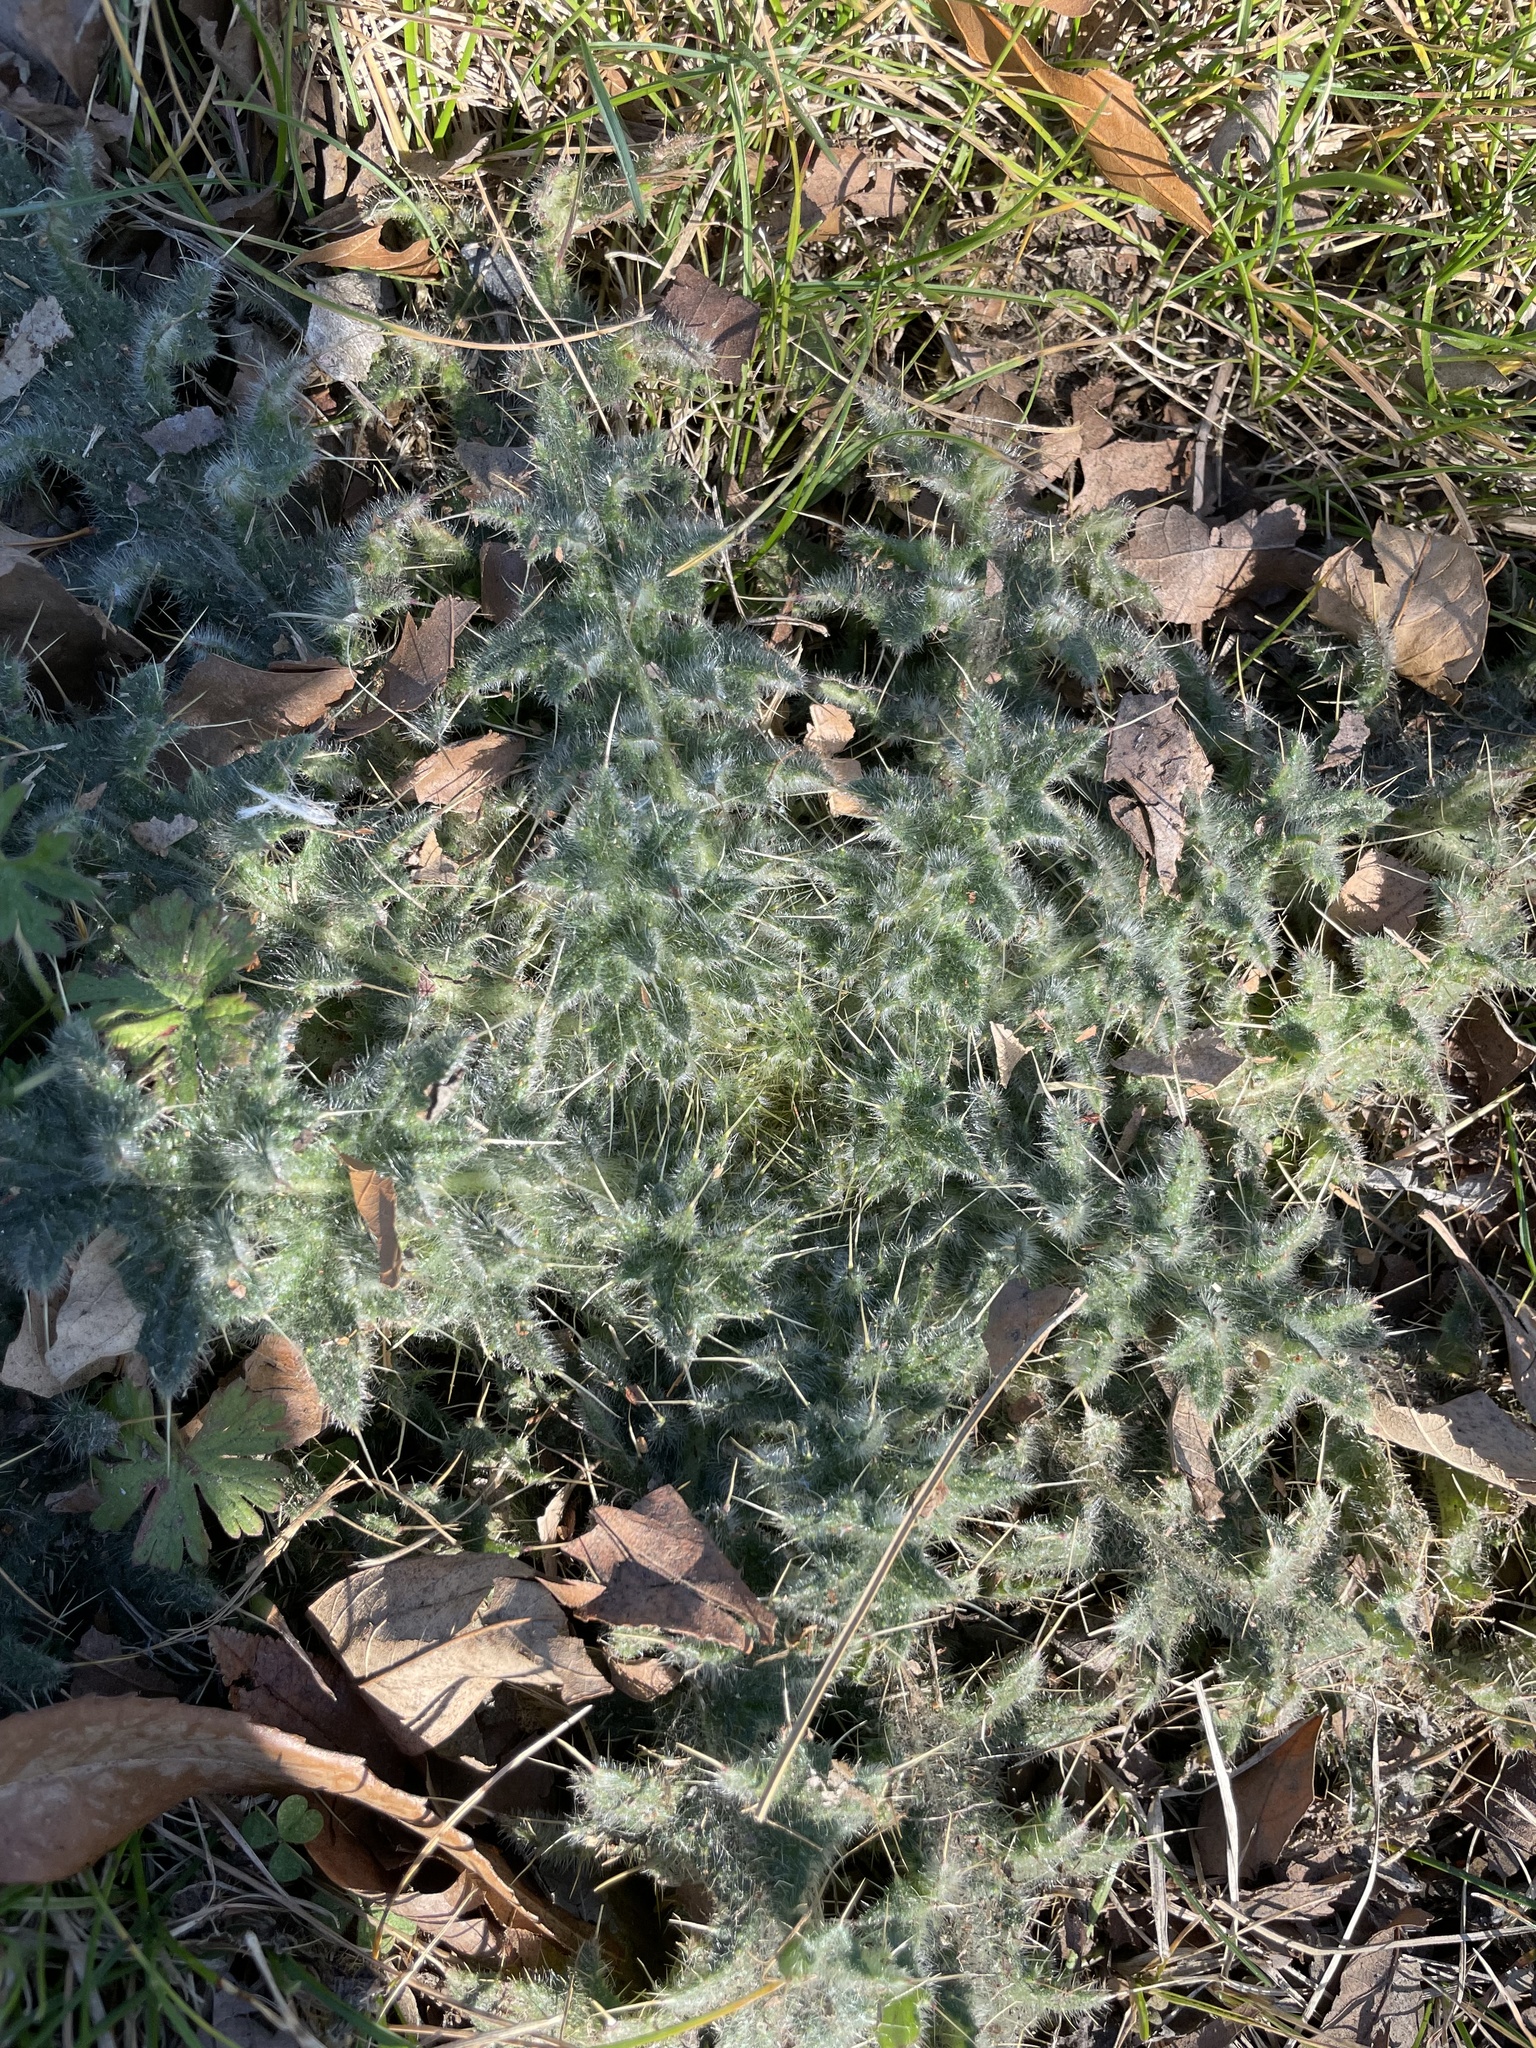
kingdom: Plantae
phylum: Tracheophyta
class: Magnoliopsida
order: Asterales
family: Asteraceae
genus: Cirsium
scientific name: Cirsium vulgare
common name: Bull thistle
